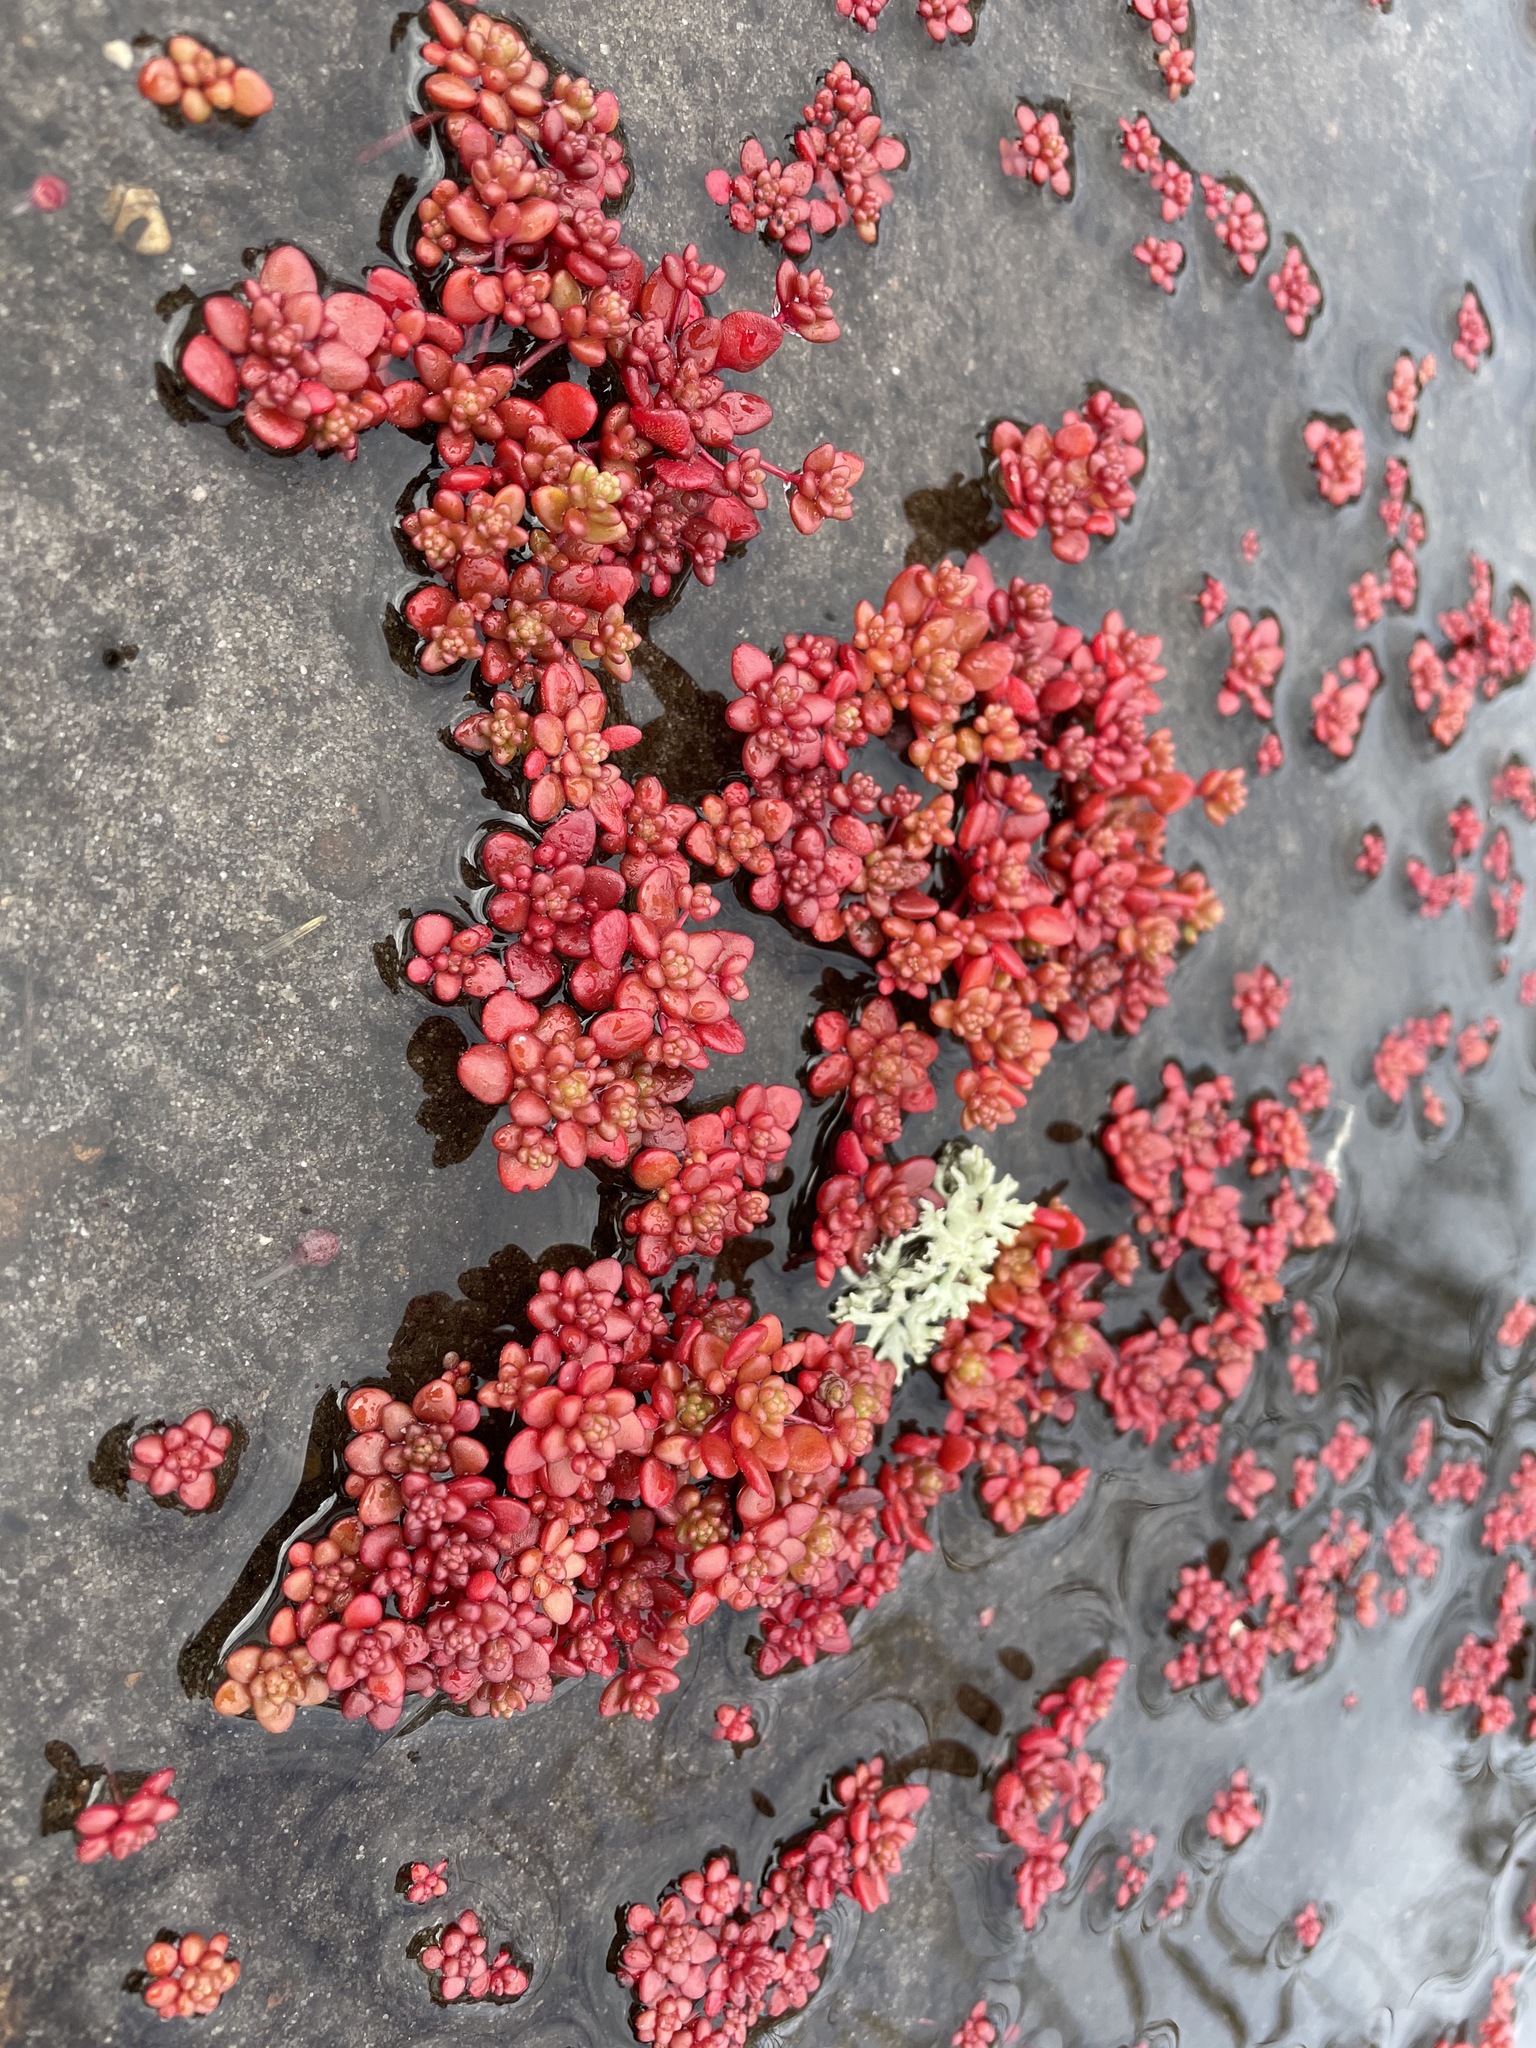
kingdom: Plantae
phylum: Tracheophyta
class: Magnoliopsida
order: Saxifragales
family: Crassulaceae
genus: Sedum
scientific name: Sedum smallii
